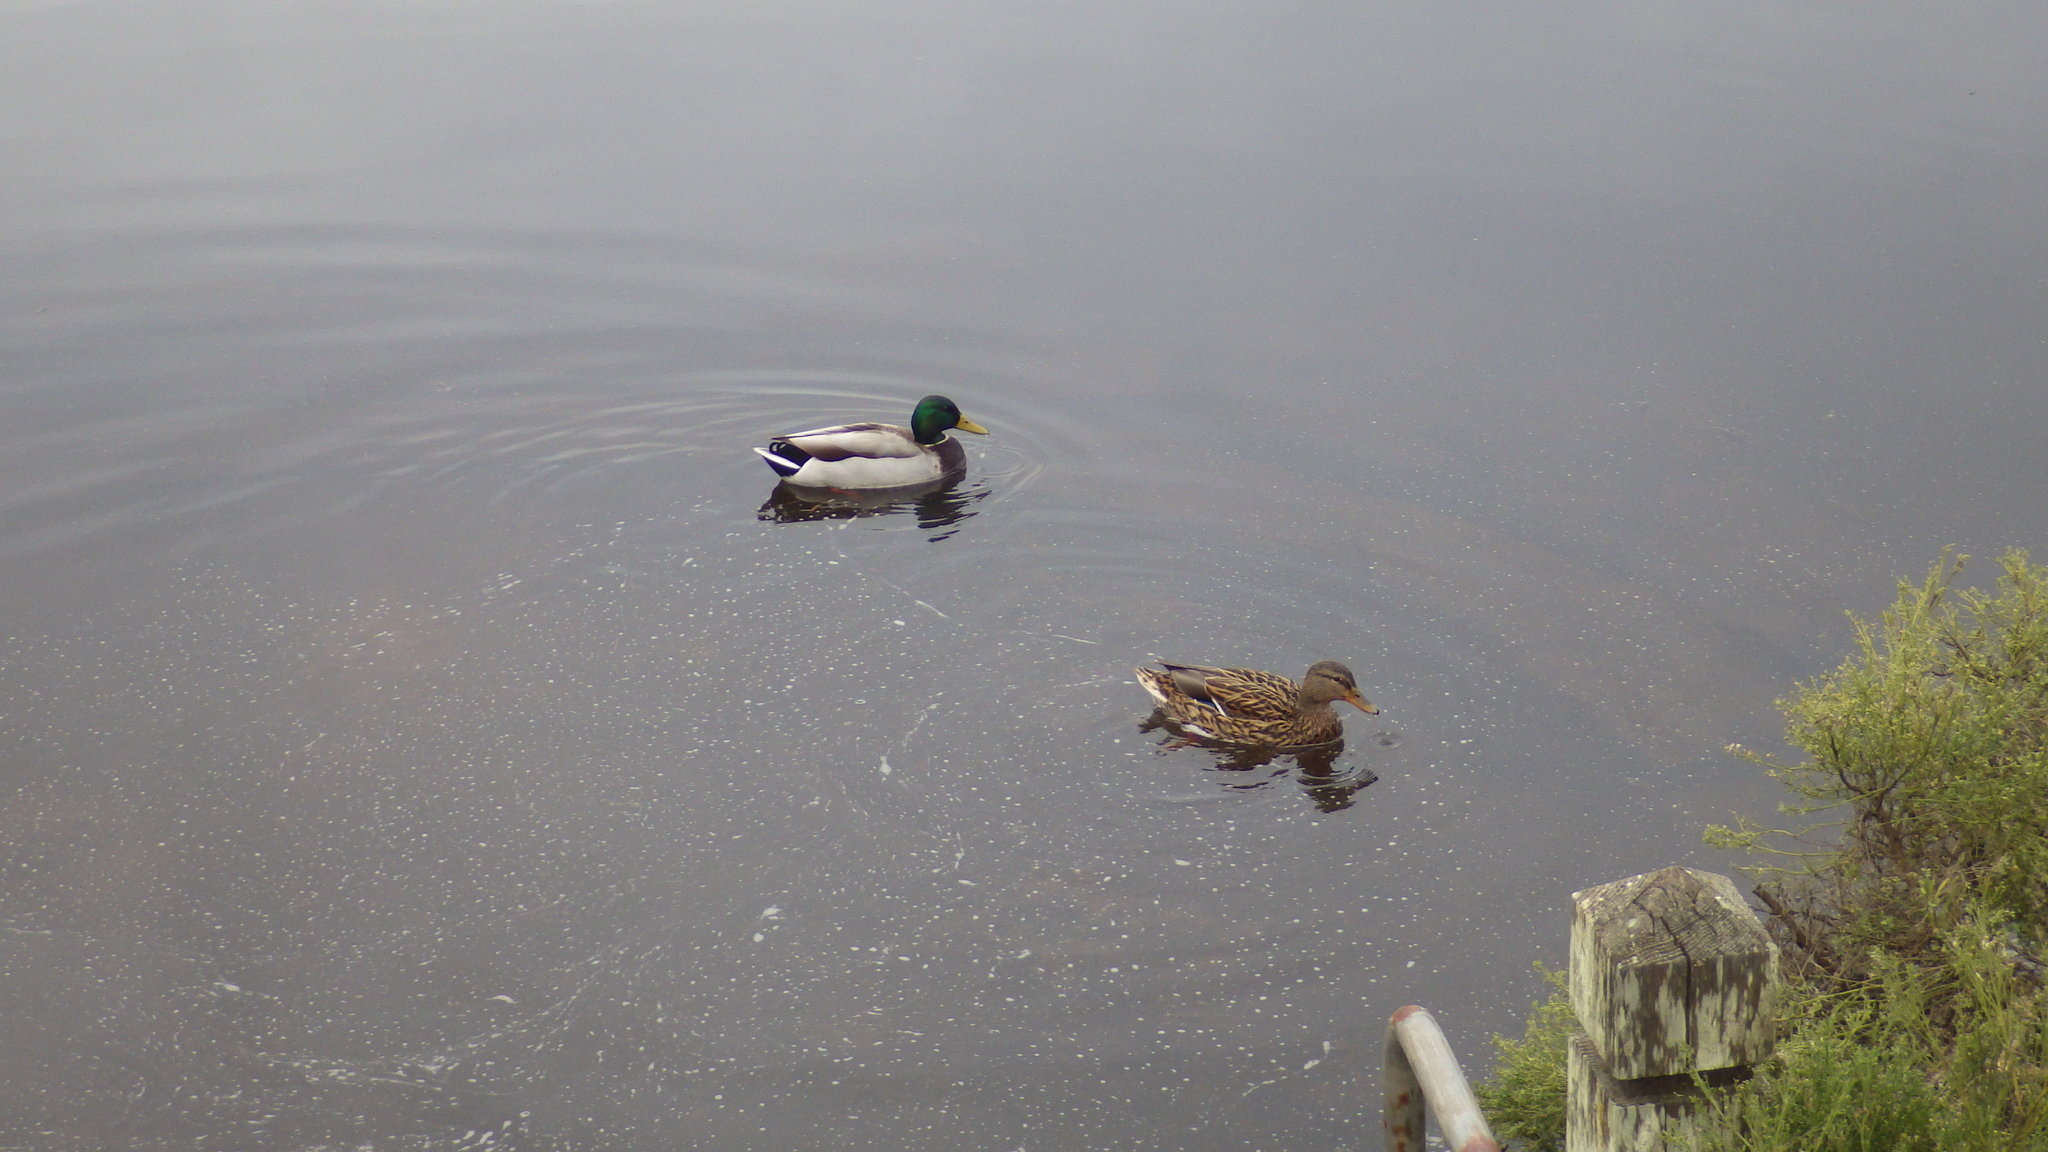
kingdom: Animalia
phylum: Chordata
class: Aves
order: Anseriformes
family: Anatidae
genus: Anas
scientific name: Anas platyrhynchos
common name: Mallard
